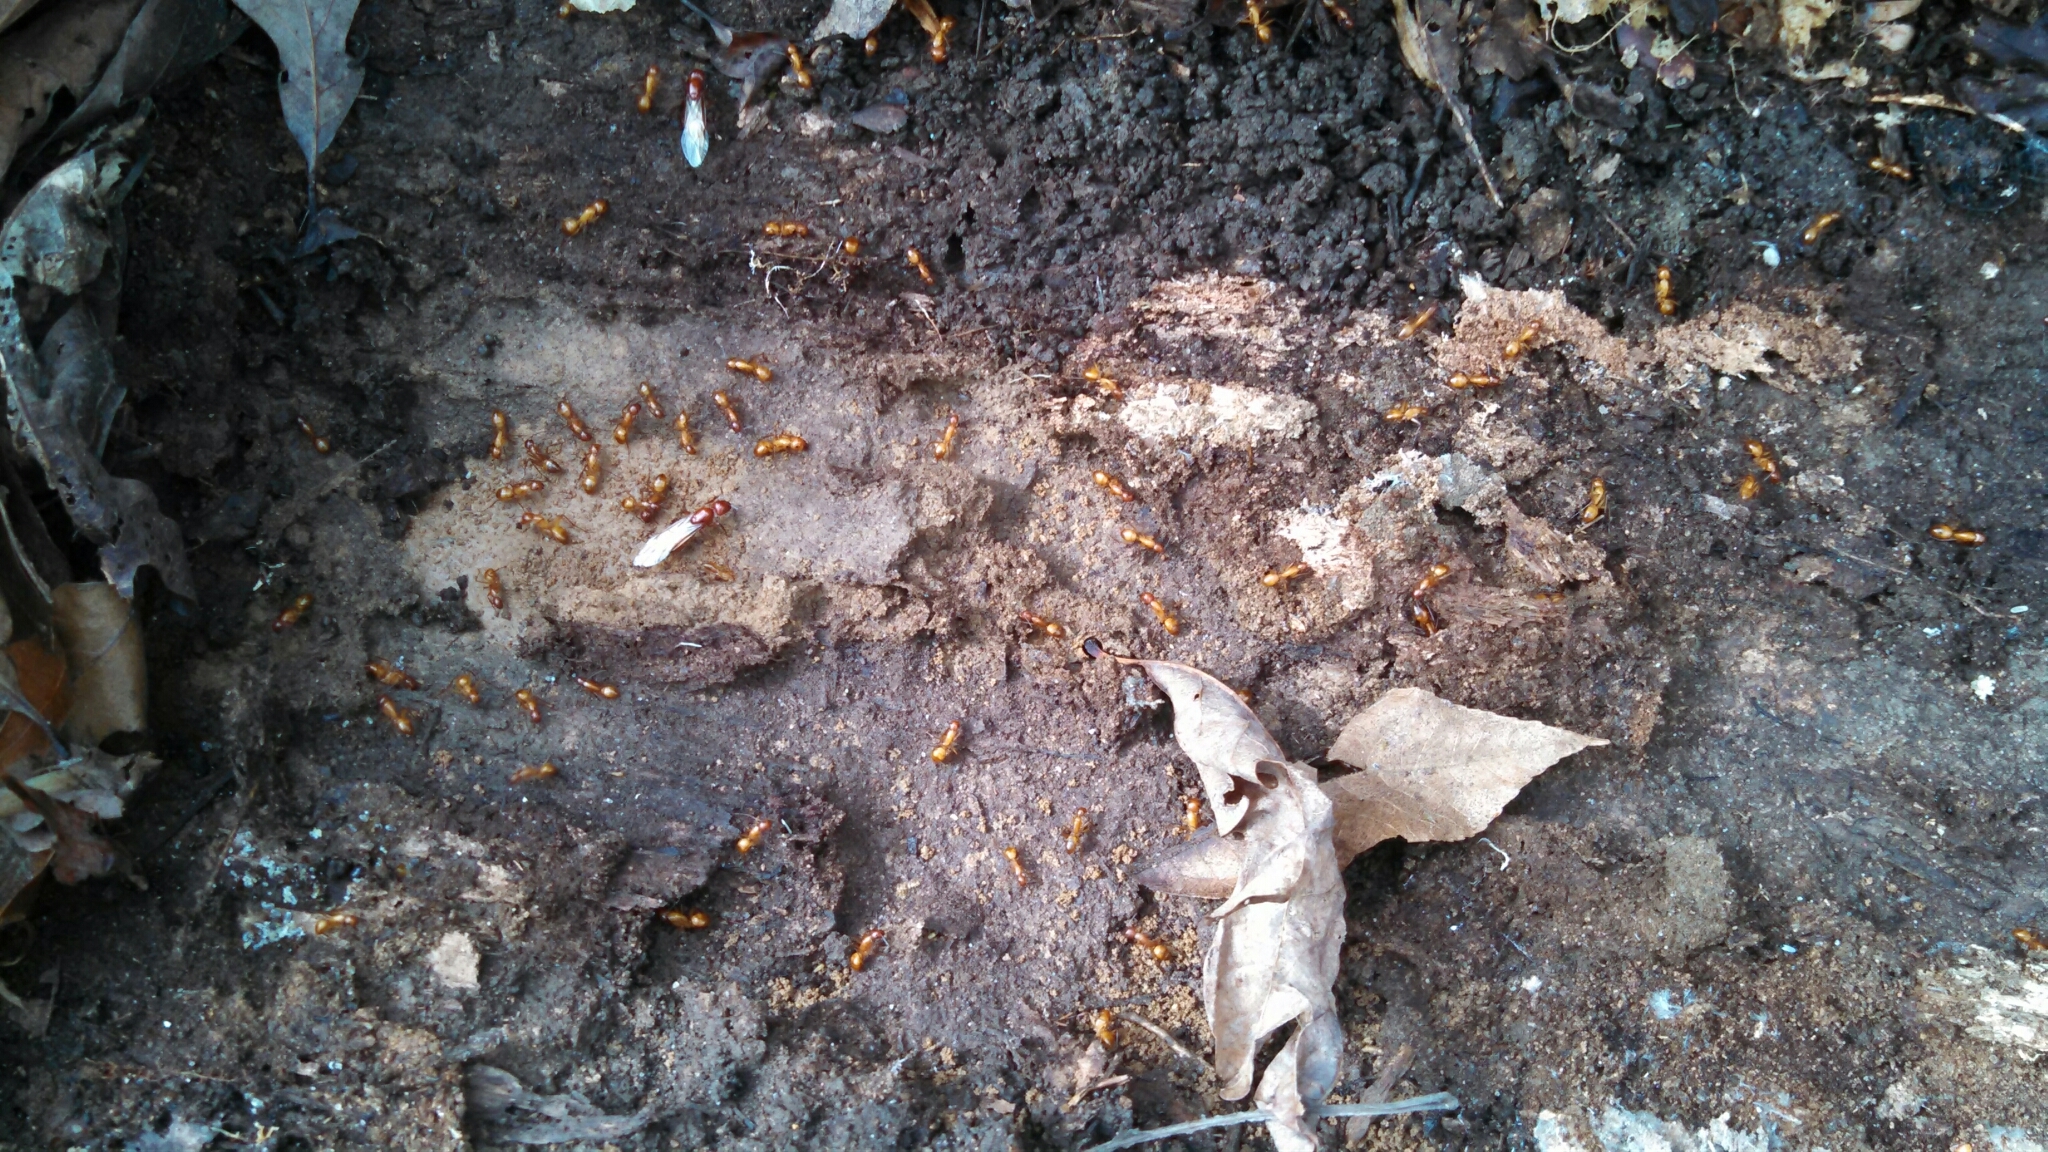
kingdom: Animalia
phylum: Arthropoda
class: Insecta
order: Hymenoptera
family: Formicidae
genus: Camponotus
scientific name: Camponotus castaneus
